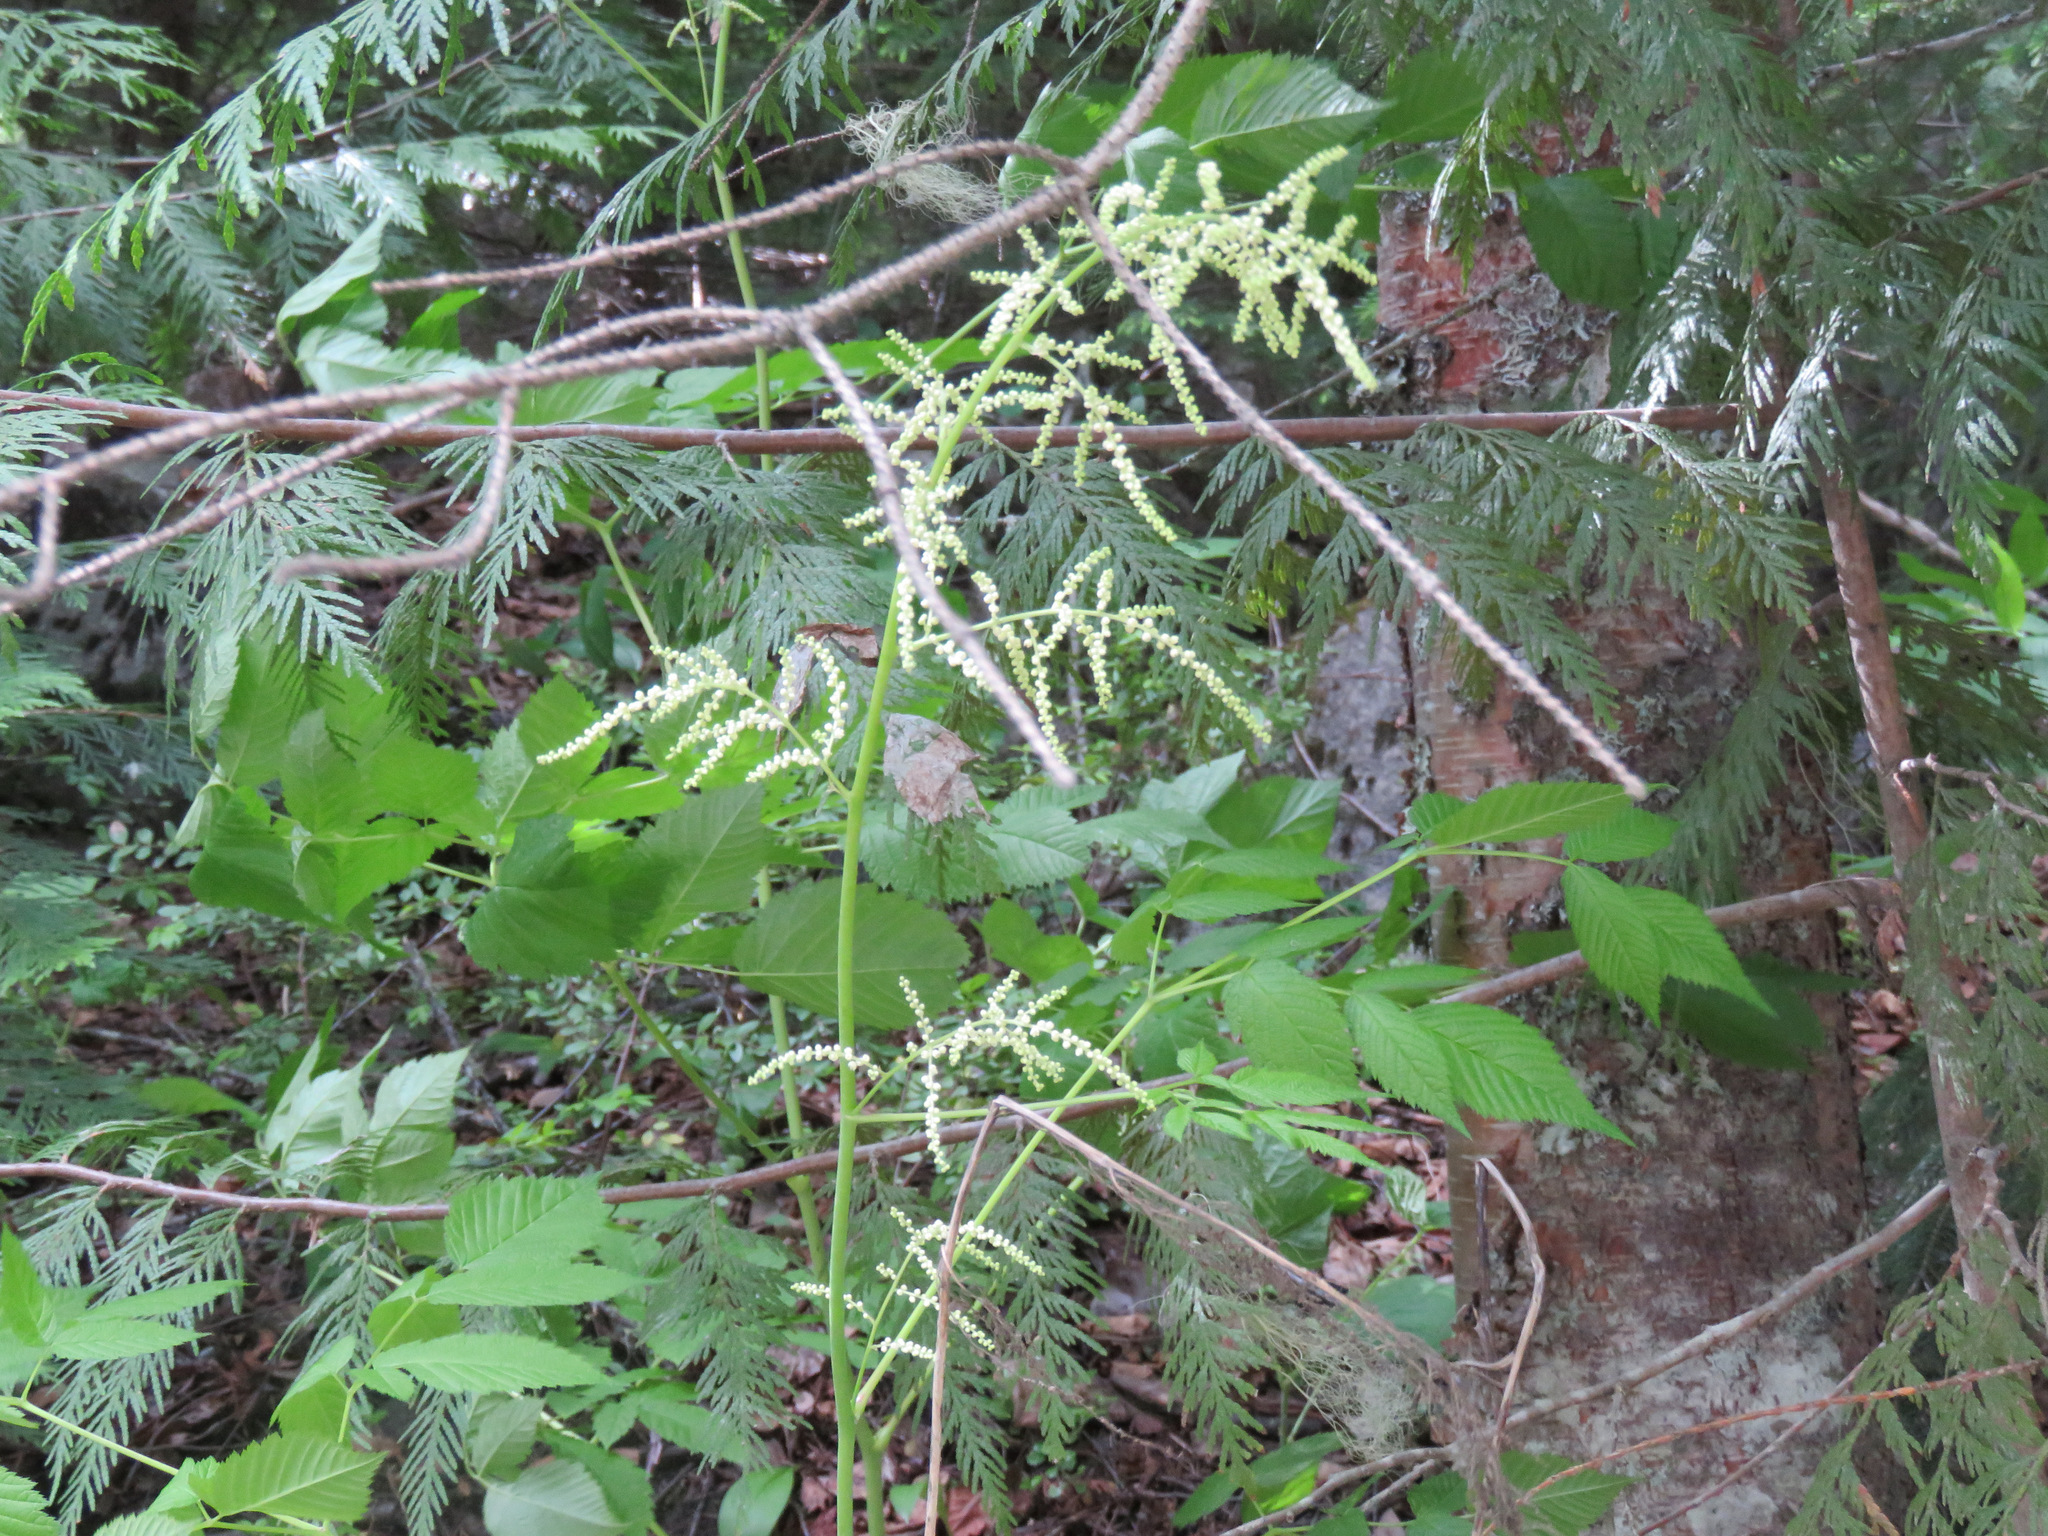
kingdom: Plantae
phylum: Tracheophyta
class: Magnoliopsida
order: Rosales
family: Rosaceae
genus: Aruncus
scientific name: Aruncus dioicus
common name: Buck's-beard
